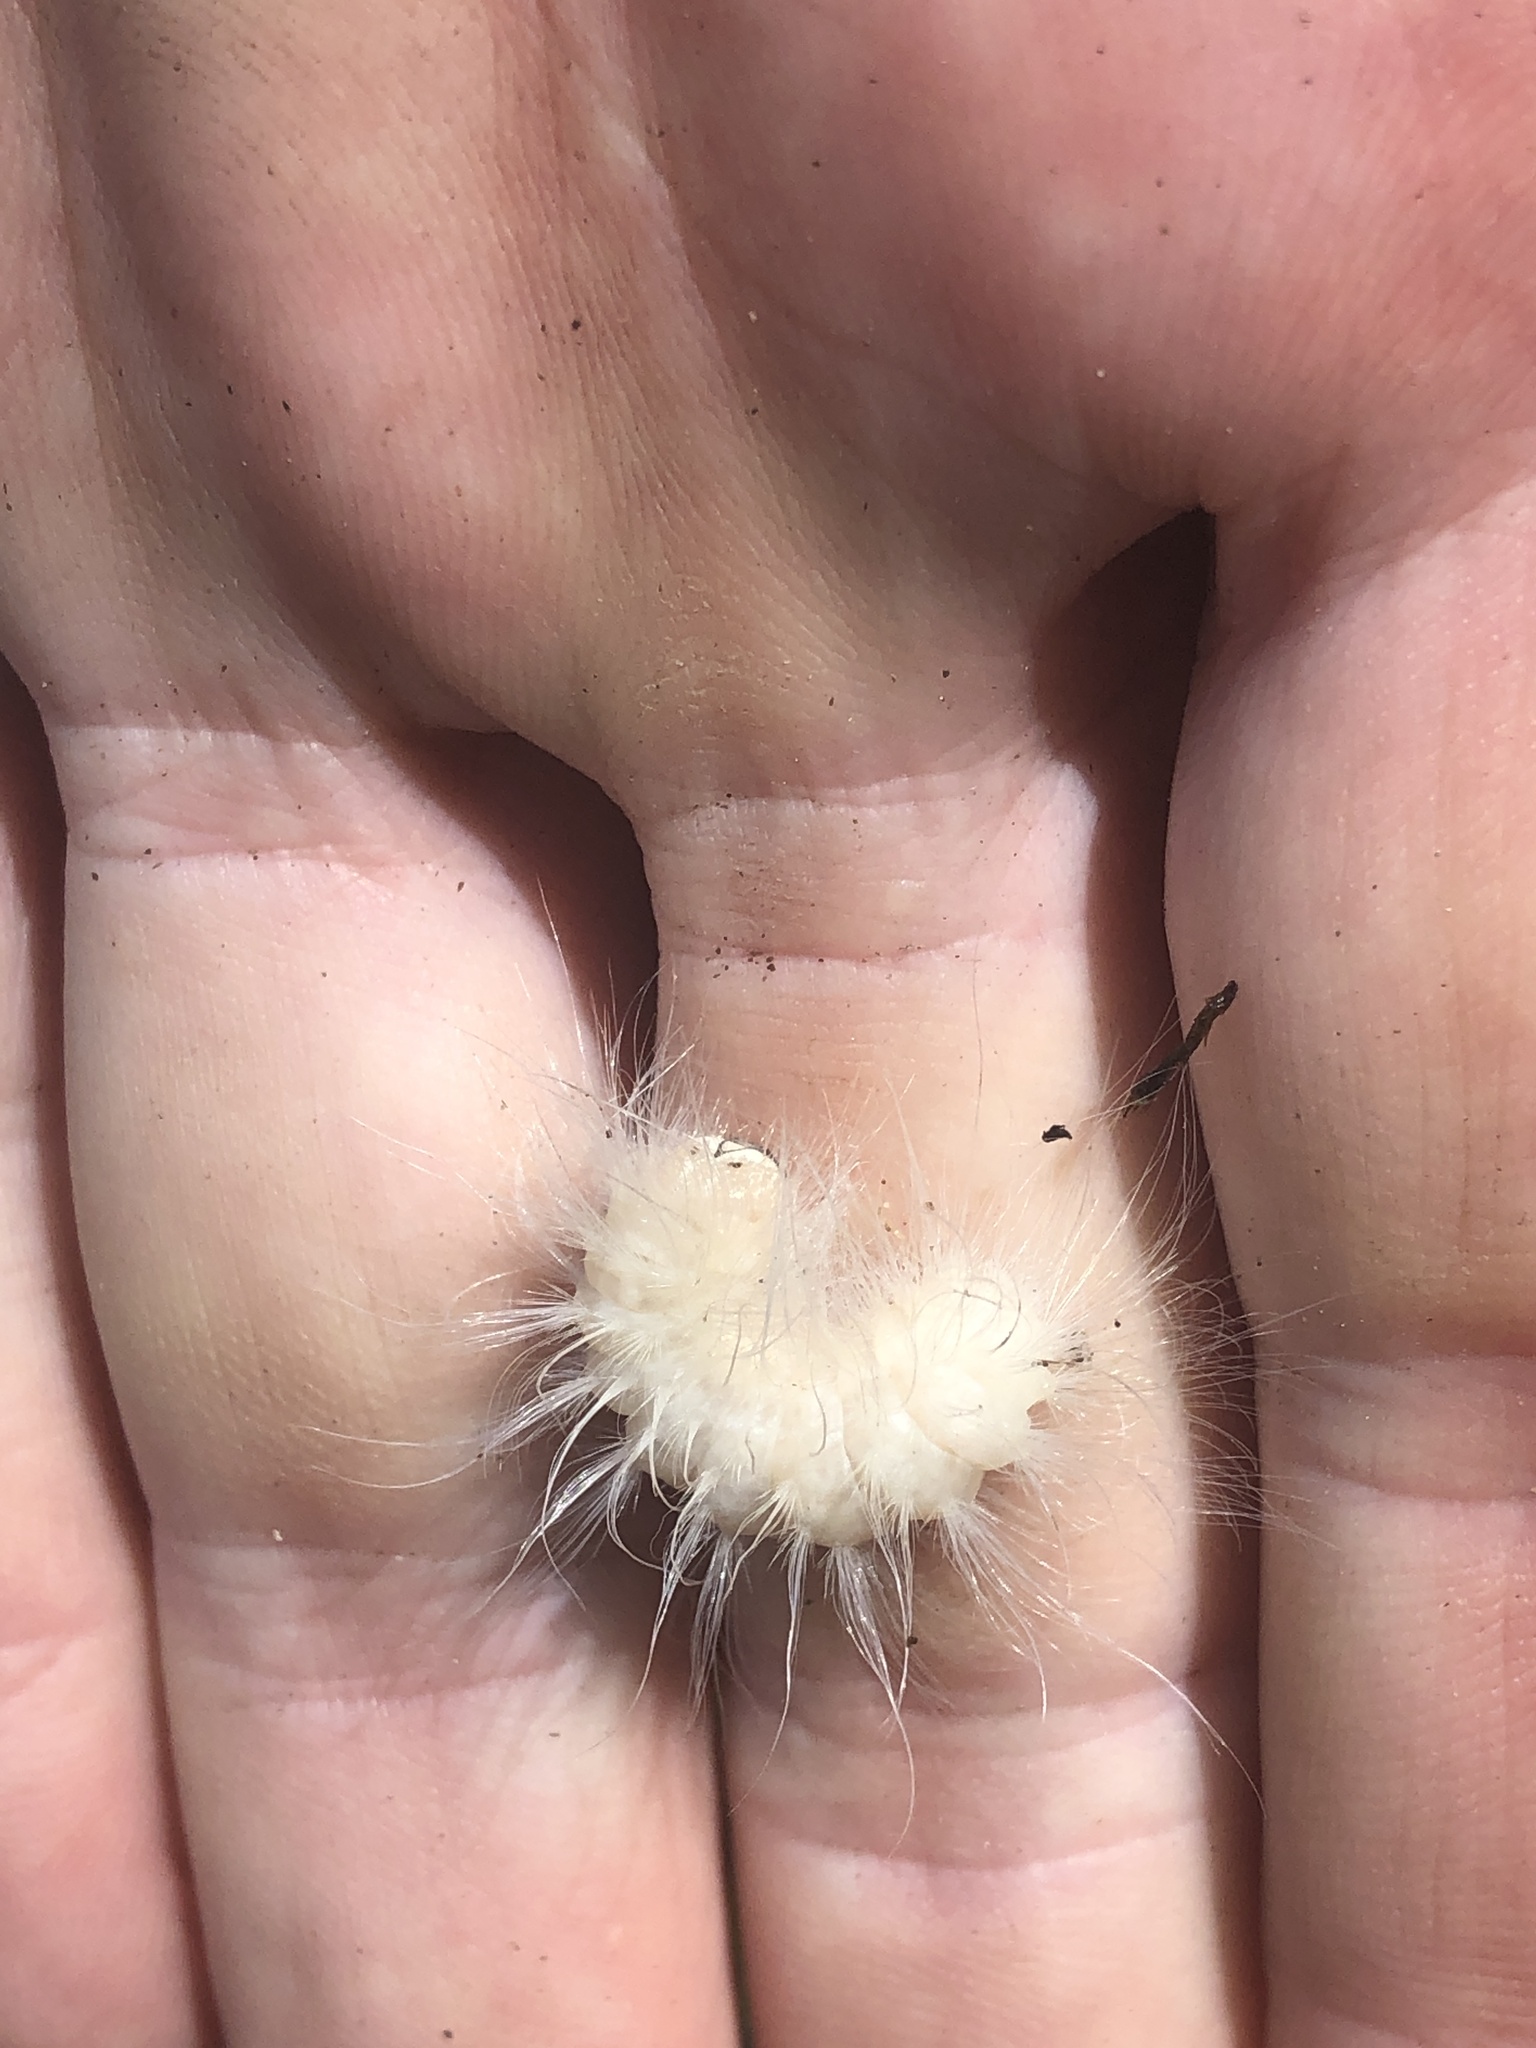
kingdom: Animalia
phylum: Arthropoda
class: Insecta
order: Lepidoptera
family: Noctuidae
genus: Charadra
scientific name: Charadra deridens
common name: Marbled tuffet
